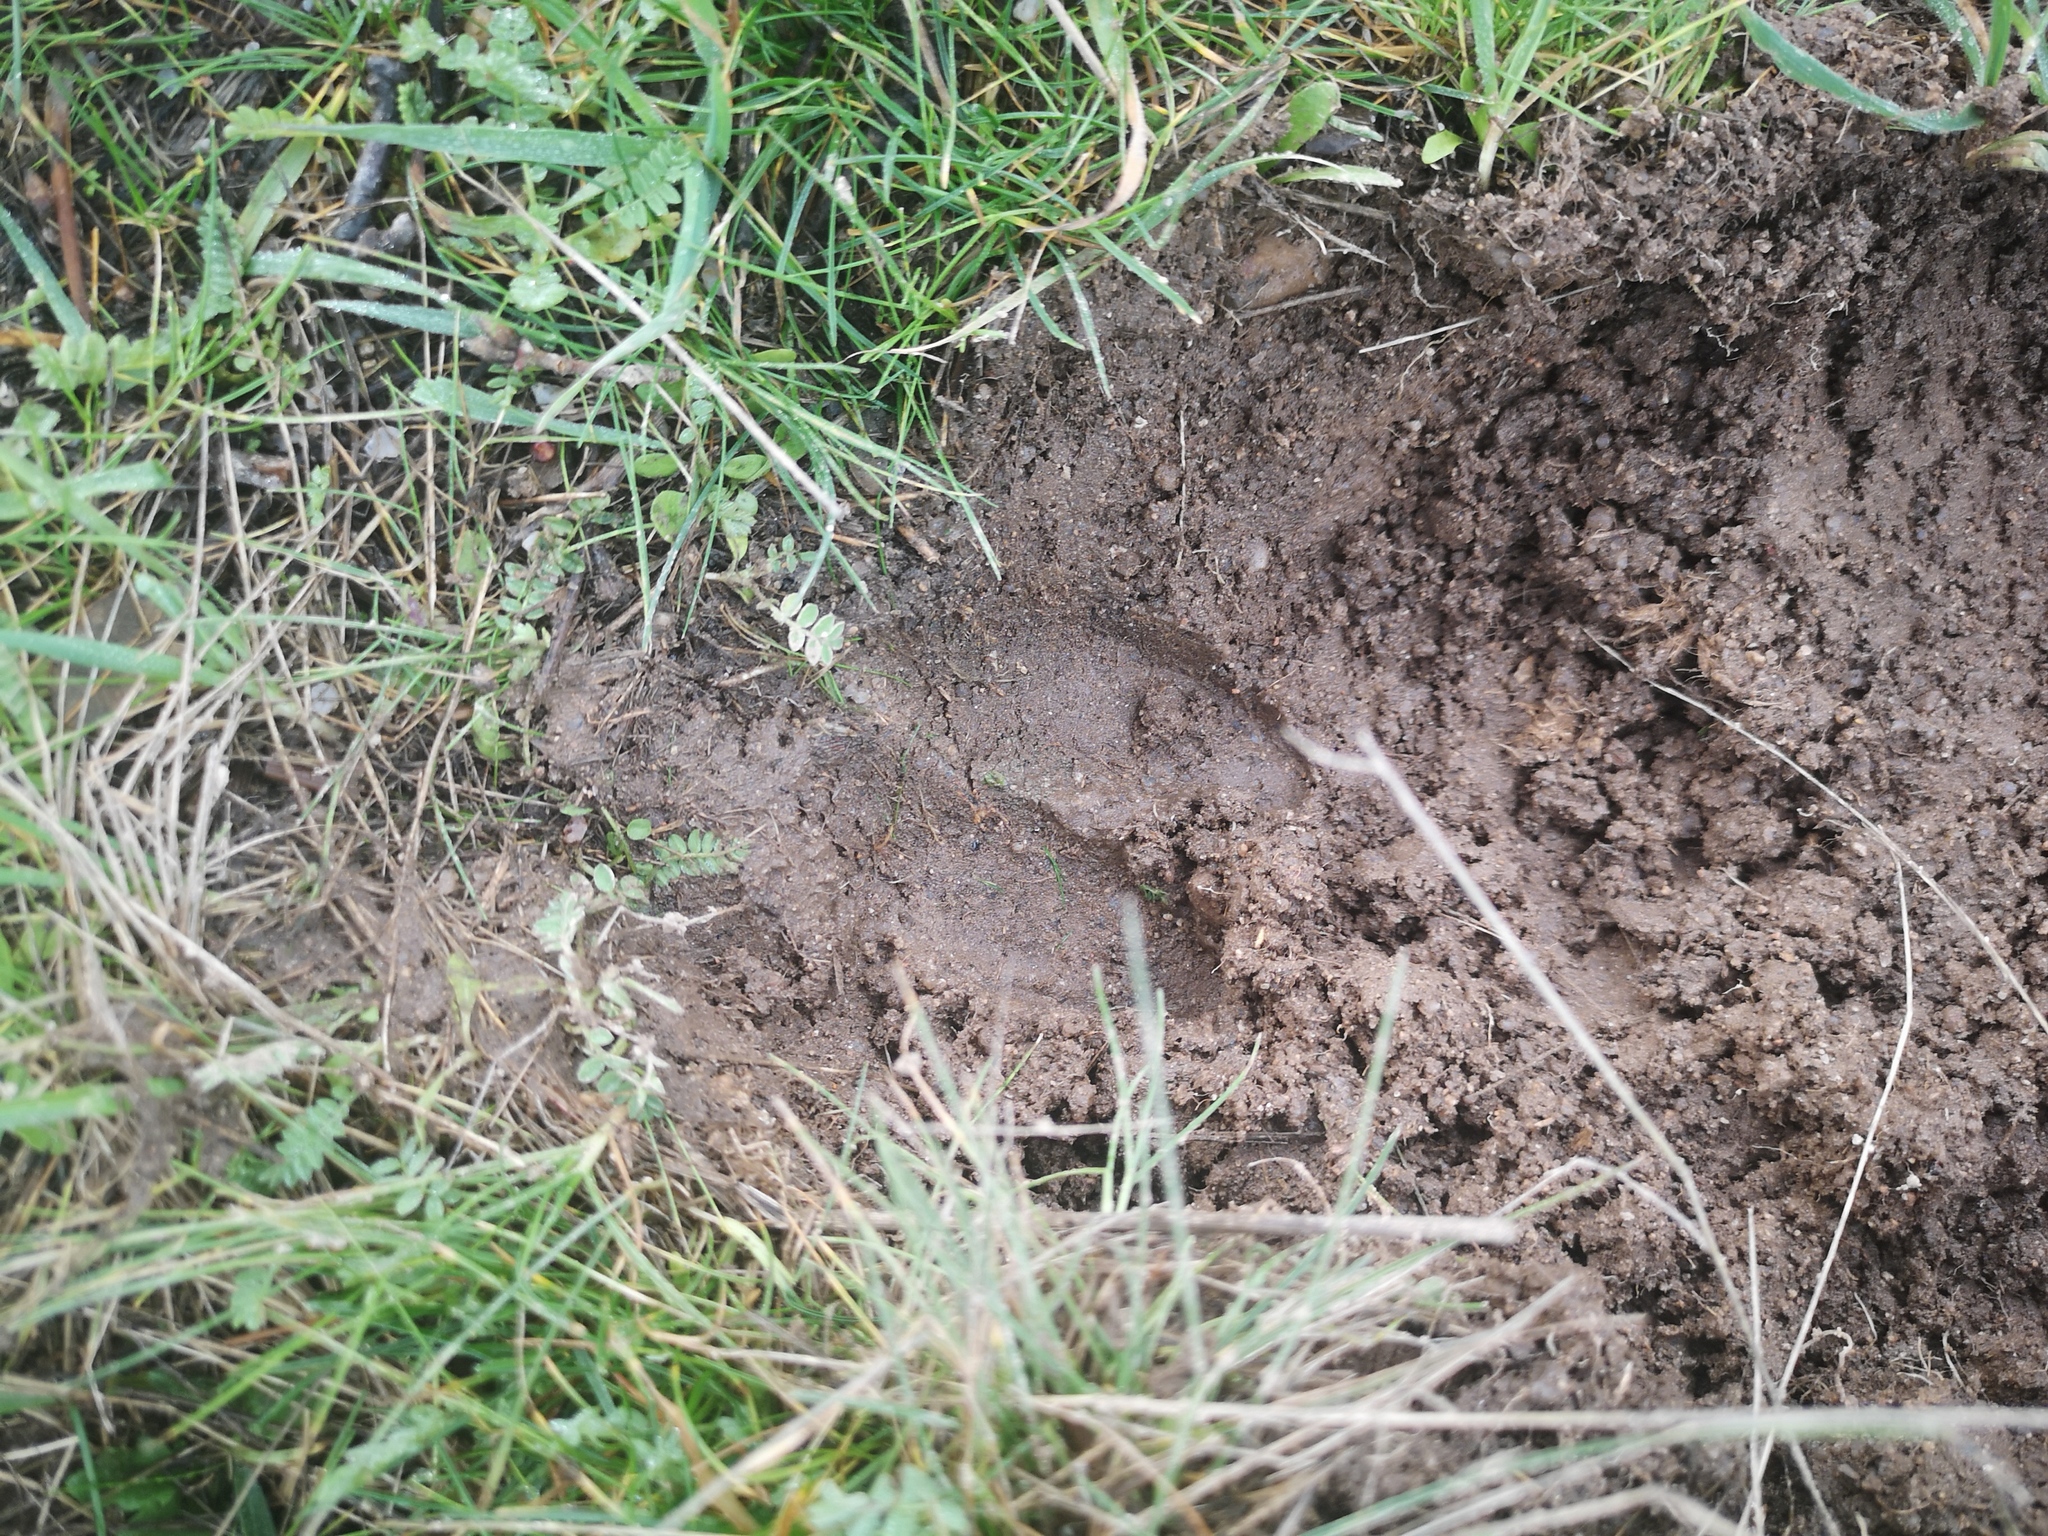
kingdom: Animalia
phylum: Chordata
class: Mammalia
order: Artiodactyla
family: Suidae
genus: Sus
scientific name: Sus scrofa
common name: Wild boar
